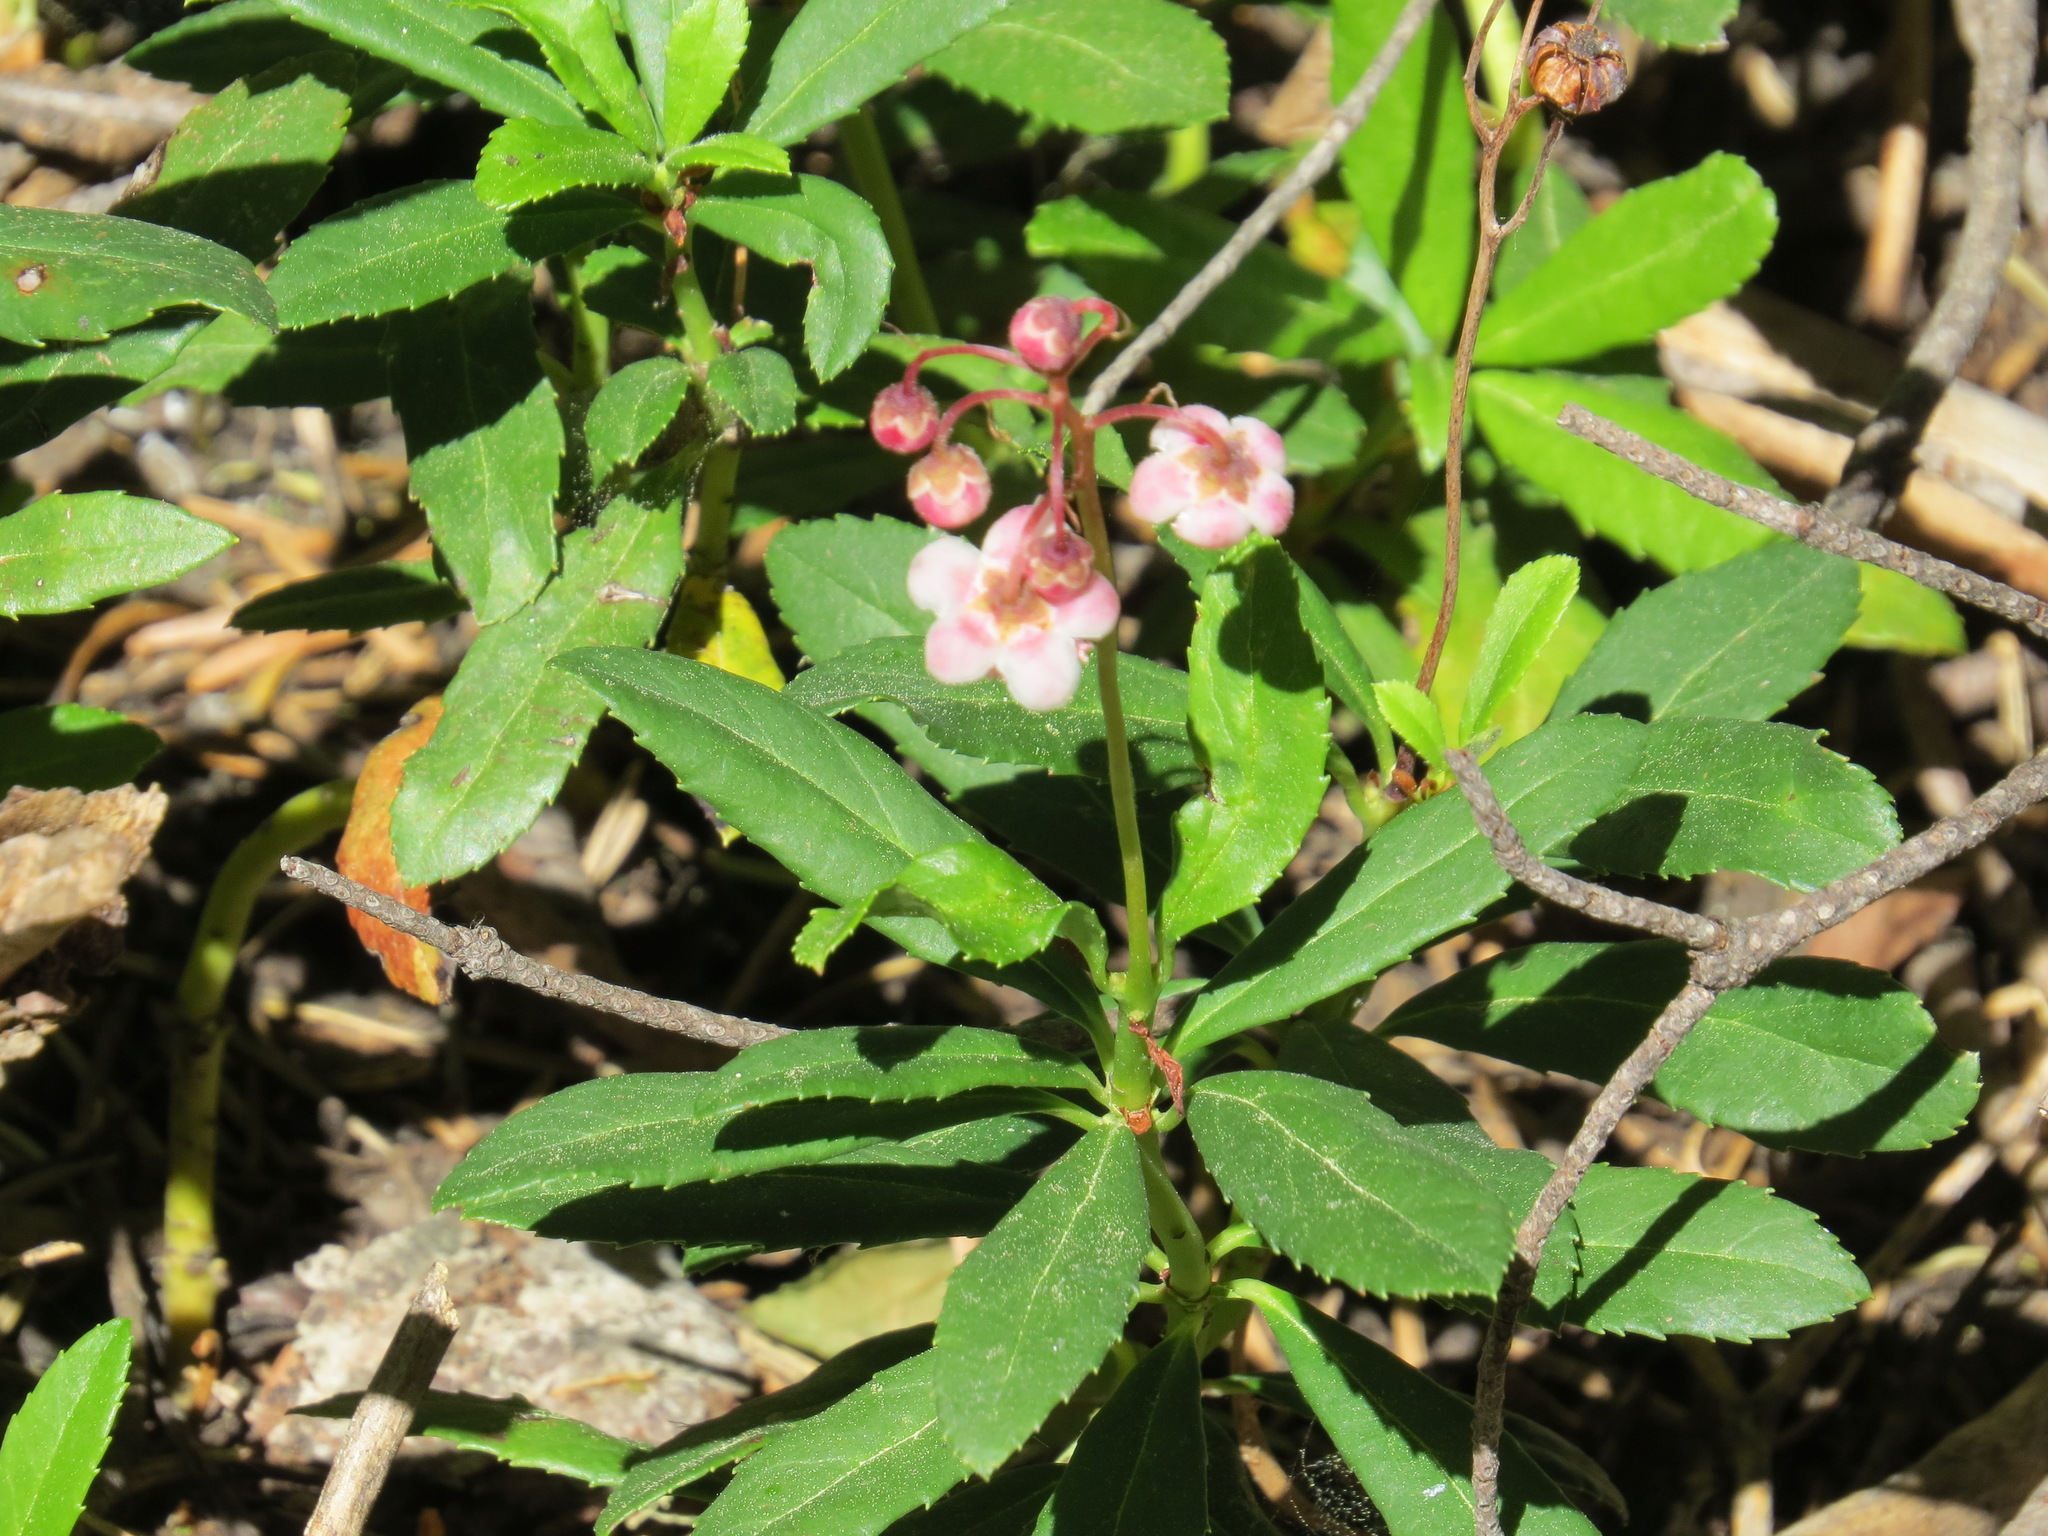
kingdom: Plantae
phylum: Tracheophyta
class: Magnoliopsida
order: Ericales
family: Ericaceae
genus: Chimaphila
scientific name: Chimaphila umbellata
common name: Pipsissewa
